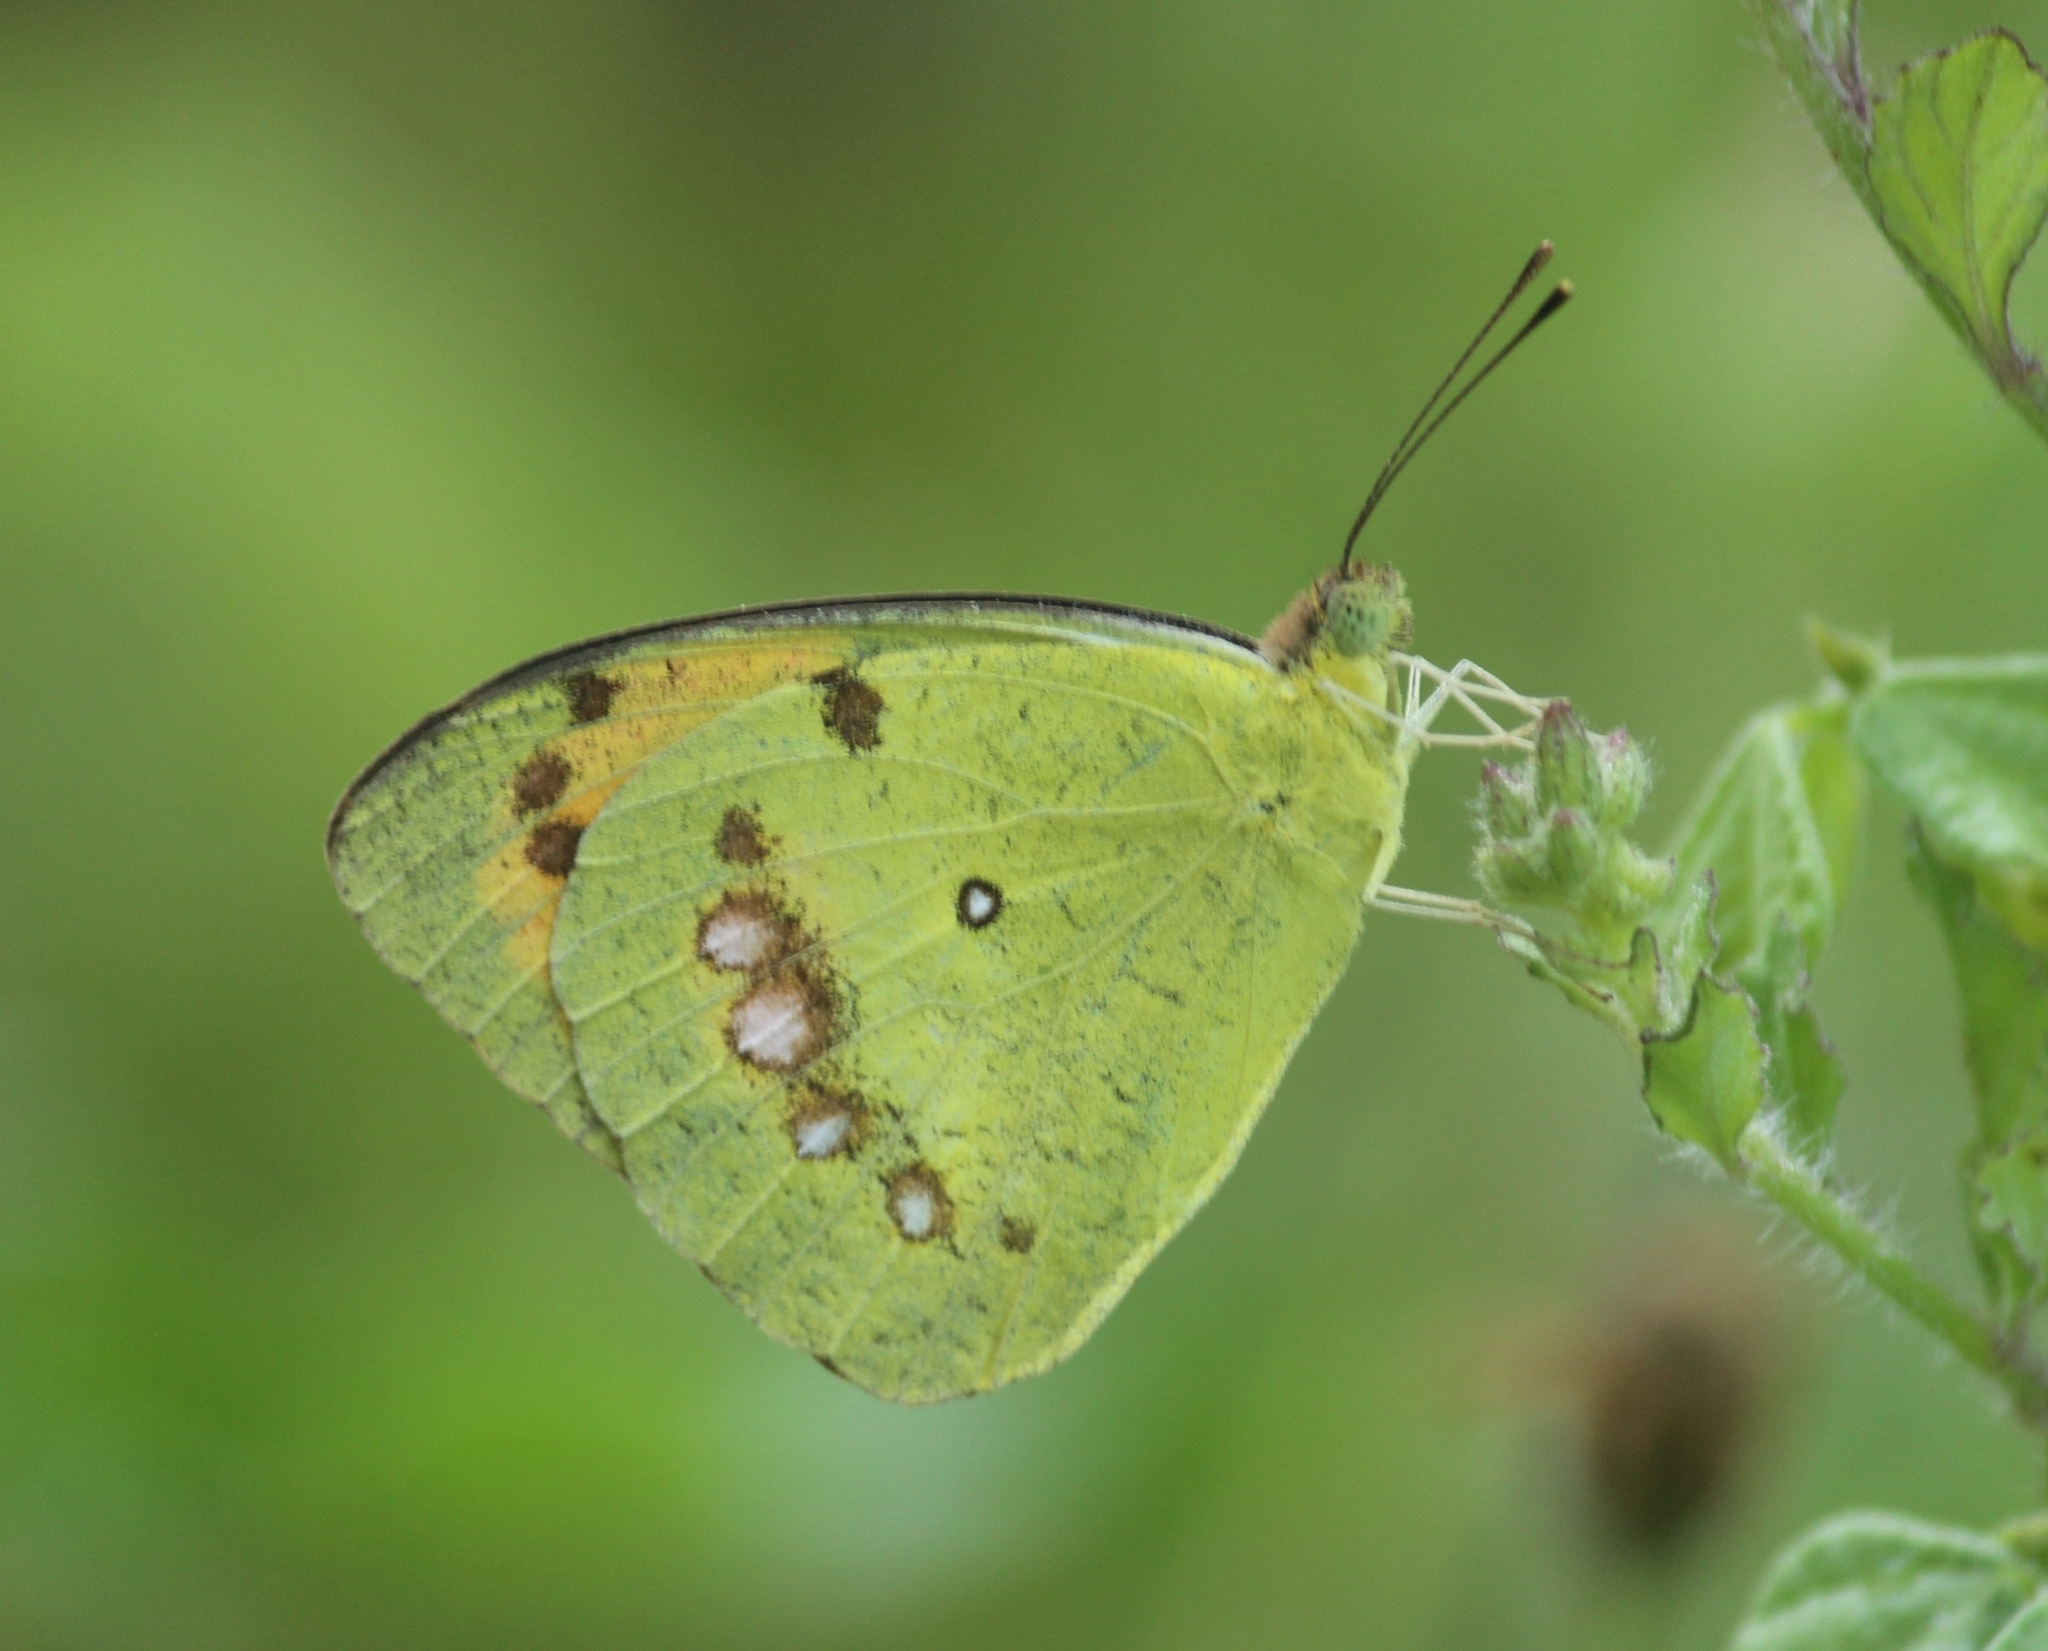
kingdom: Animalia
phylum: Arthropoda
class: Insecta
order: Lepidoptera
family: Pieridae
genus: Ixias
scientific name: Ixias marianne
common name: White orange tip
